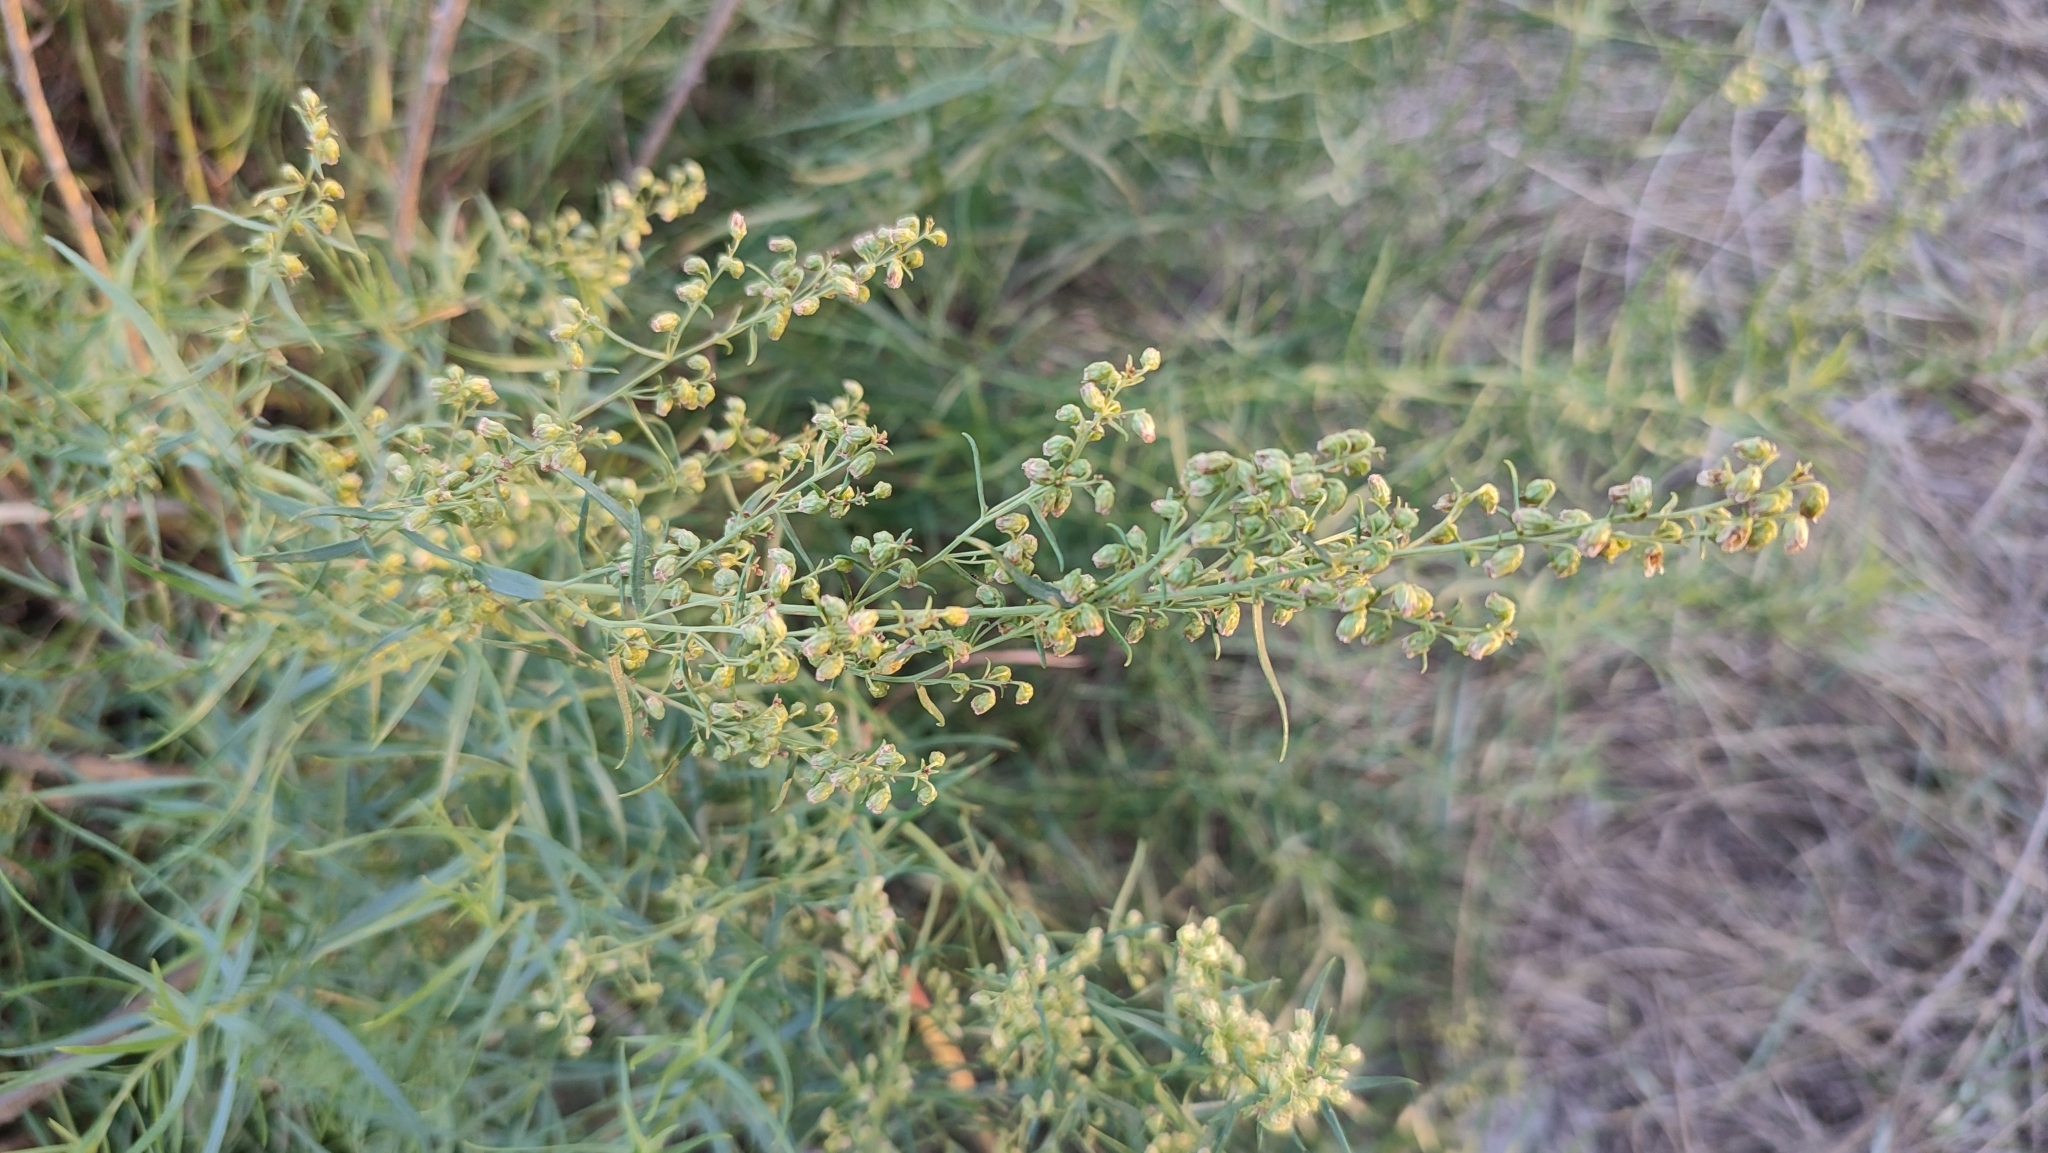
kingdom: Plantae
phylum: Tracheophyta
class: Magnoliopsida
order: Asterales
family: Asteraceae
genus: Artemisia
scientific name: Artemisia dracunculus
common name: Tarragon
